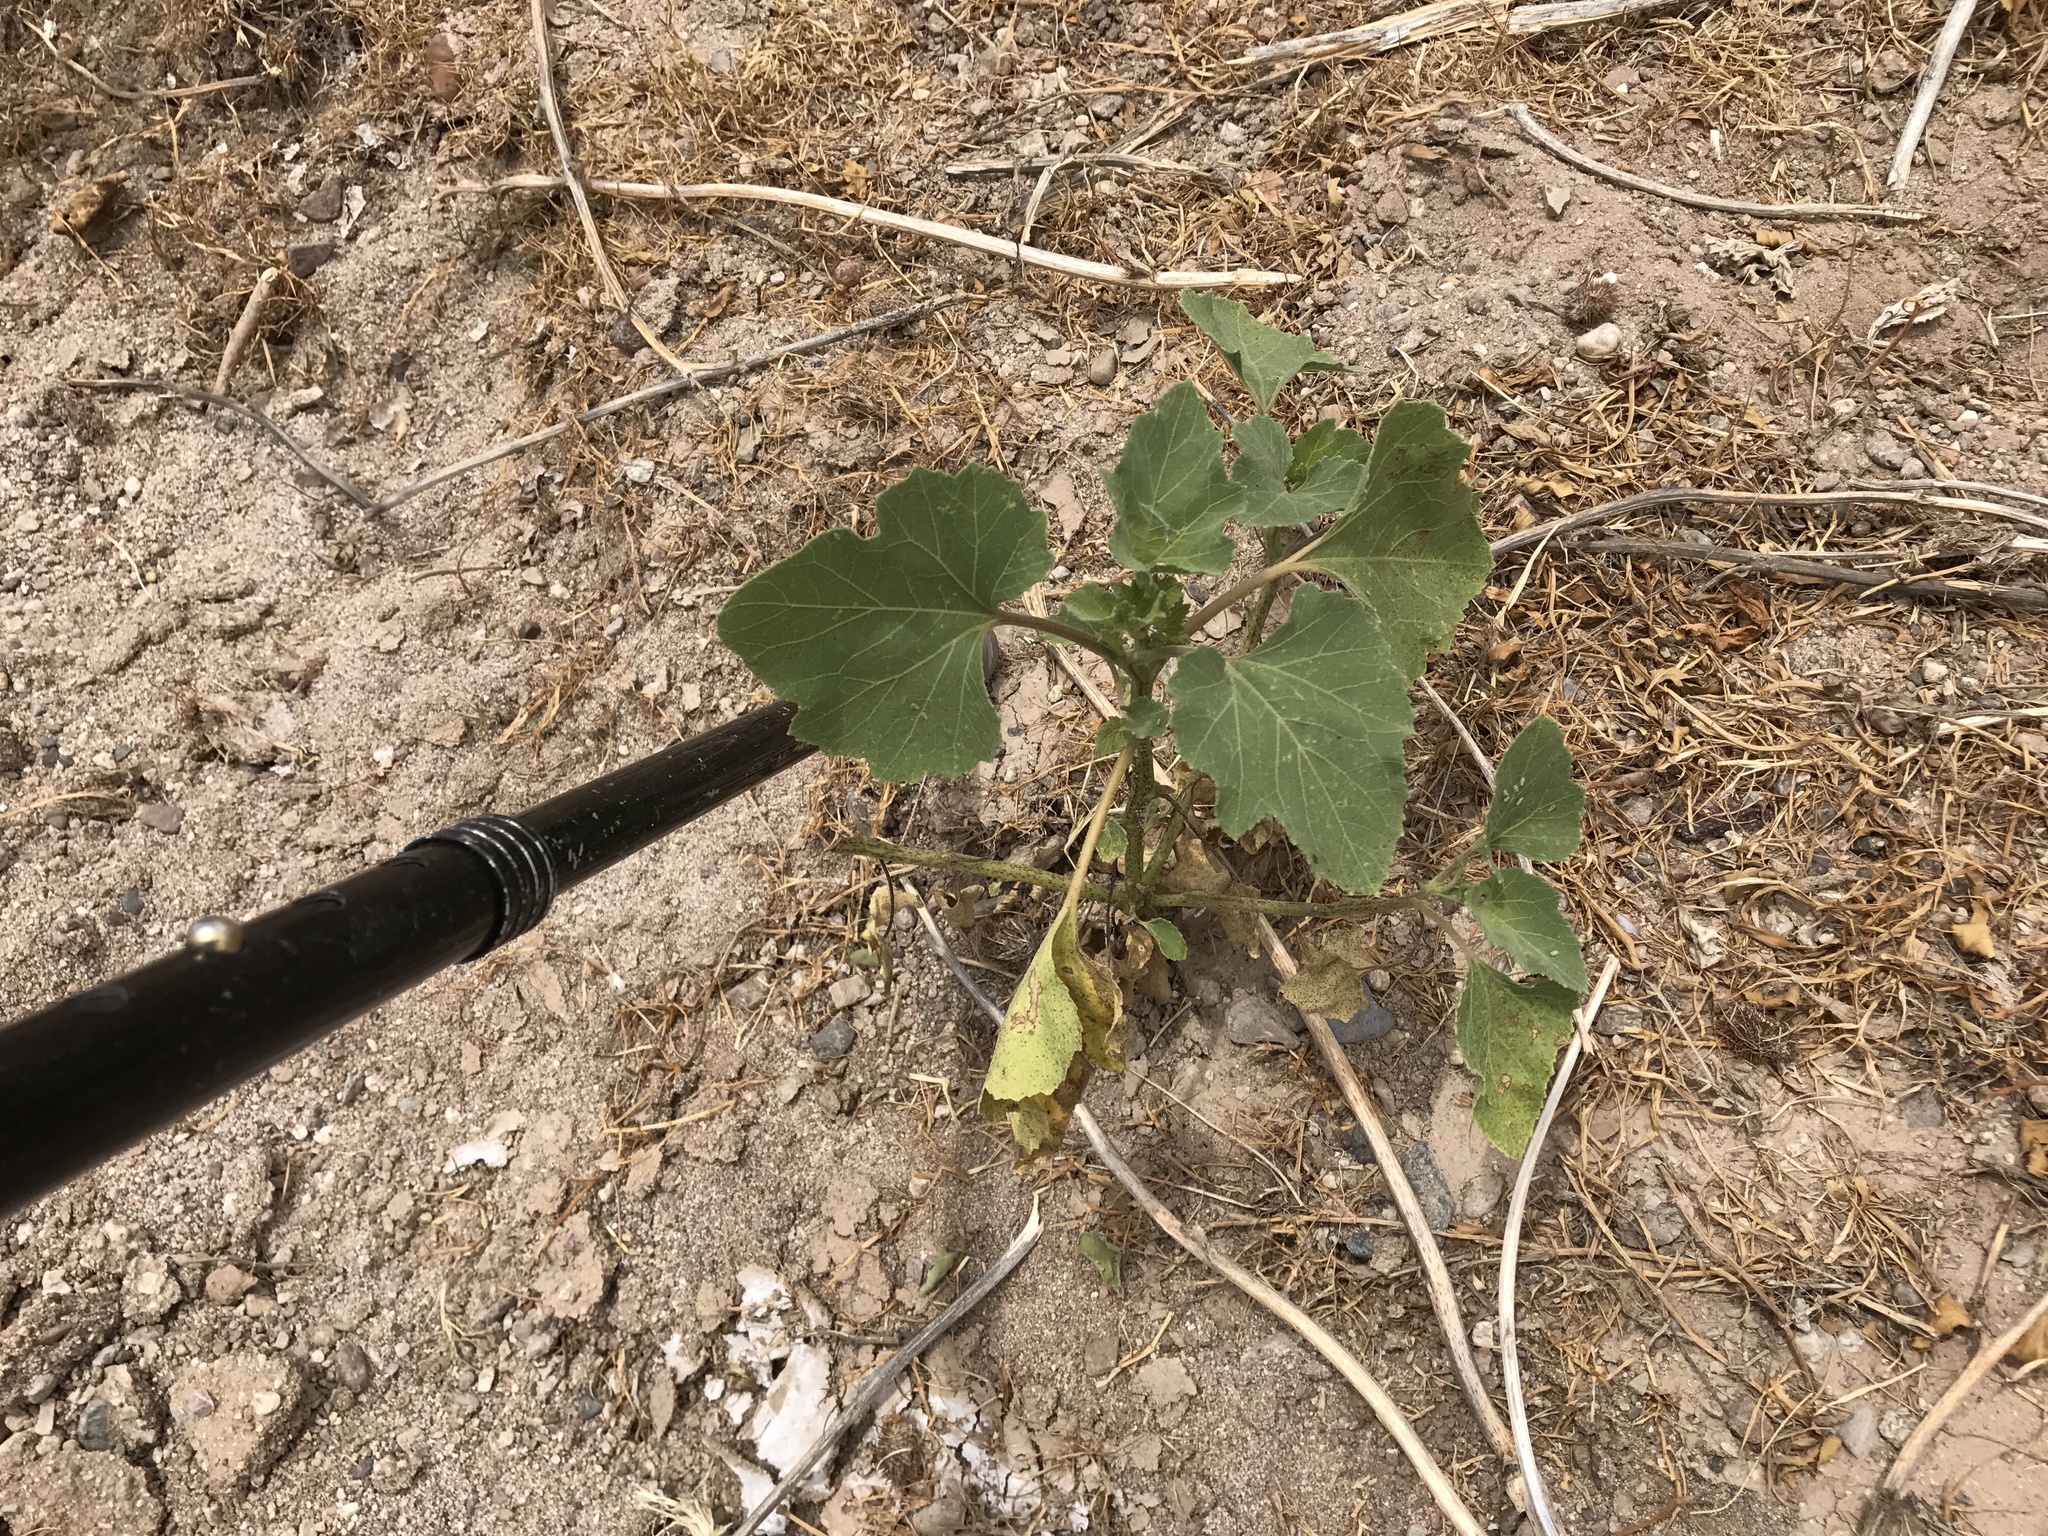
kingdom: Plantae
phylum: Tracheophyta
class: Magnoliopsida
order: Asterales
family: Asteraceae
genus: Xanthium
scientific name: Xanthium strumarium
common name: Rough cocklebur
